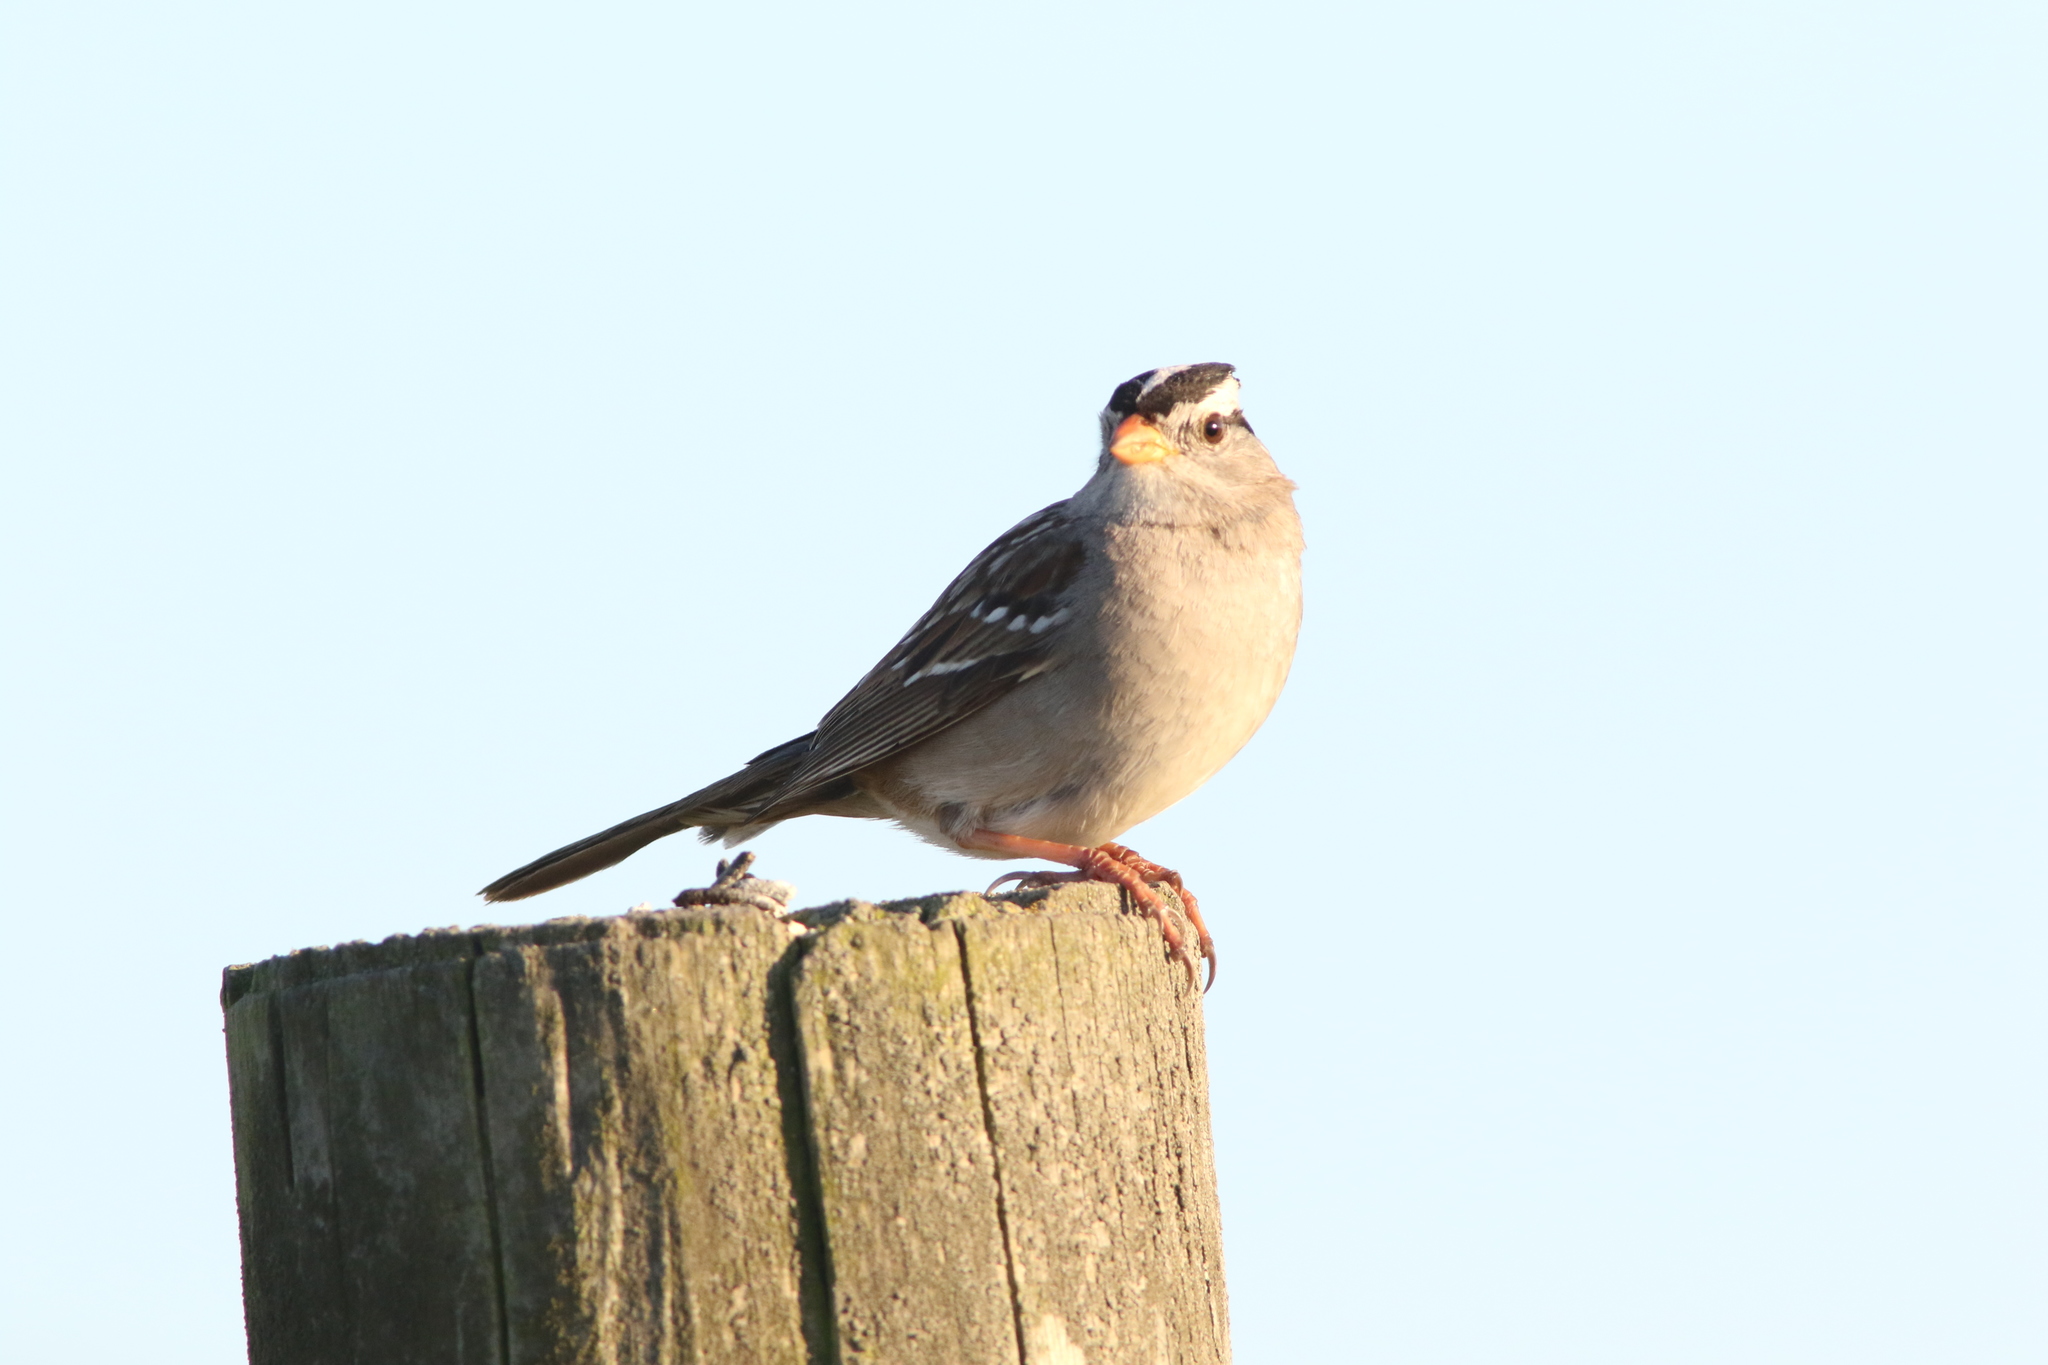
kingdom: Animalia
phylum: Chordata
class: Aves
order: Passeriformes
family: Passerellidae
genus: Zonotrichia
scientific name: Zonotrichia leucophrys
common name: White-crowned sparrow
